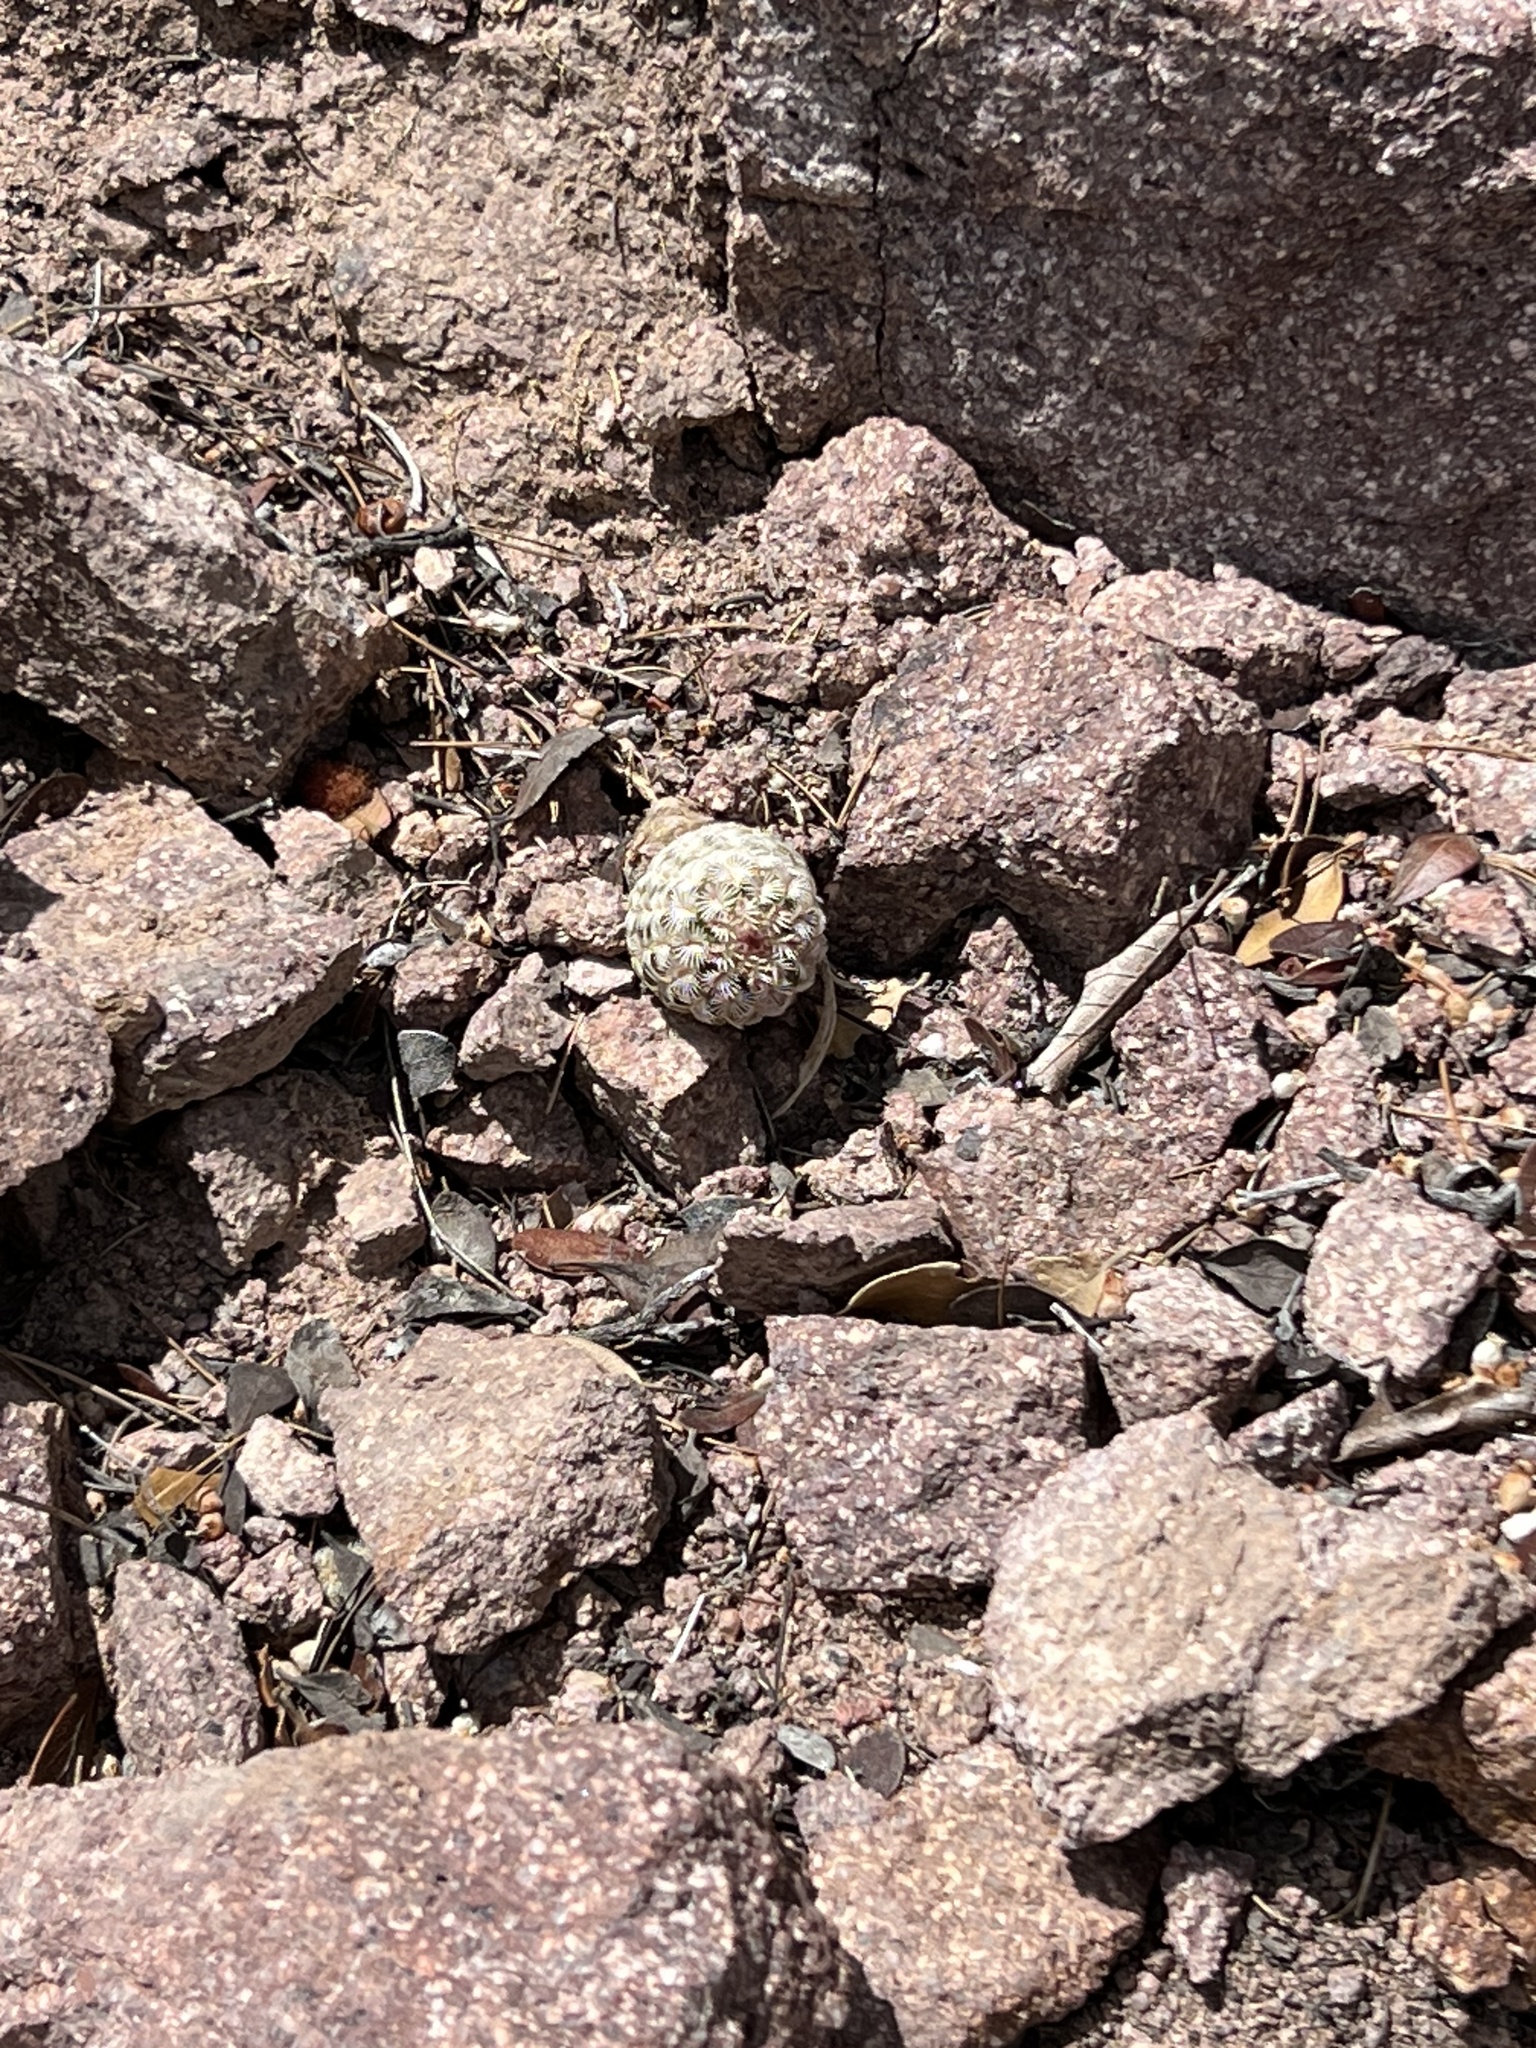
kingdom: Plantae
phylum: Tracheophyta
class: Magnoliopsida
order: Caryophyllales
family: Cactaceae
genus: Echinocereus
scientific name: Echinocereus rigidissimus
